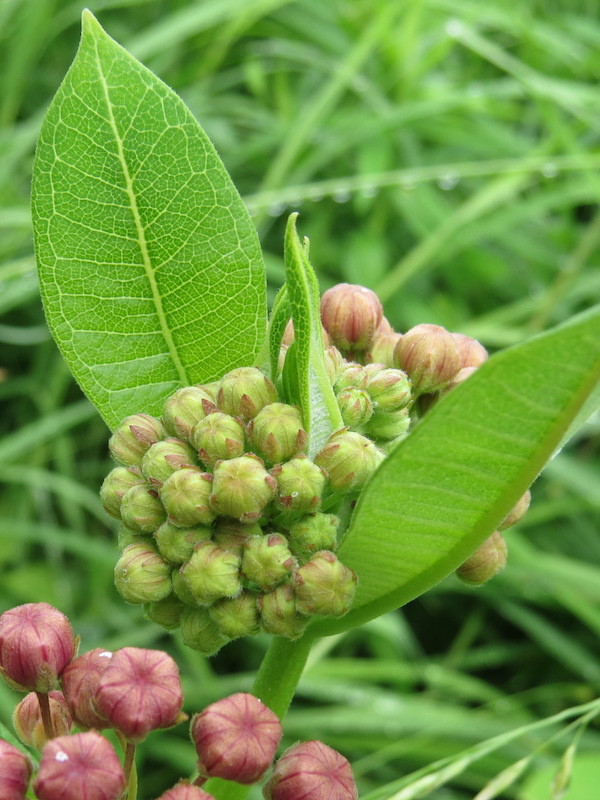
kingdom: Plantae
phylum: Tracheophyta
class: Magnoliopsida
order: Gentianales
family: Apocynaceae
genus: Asclepias
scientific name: Asclepias syriaca
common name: Common milkweed
